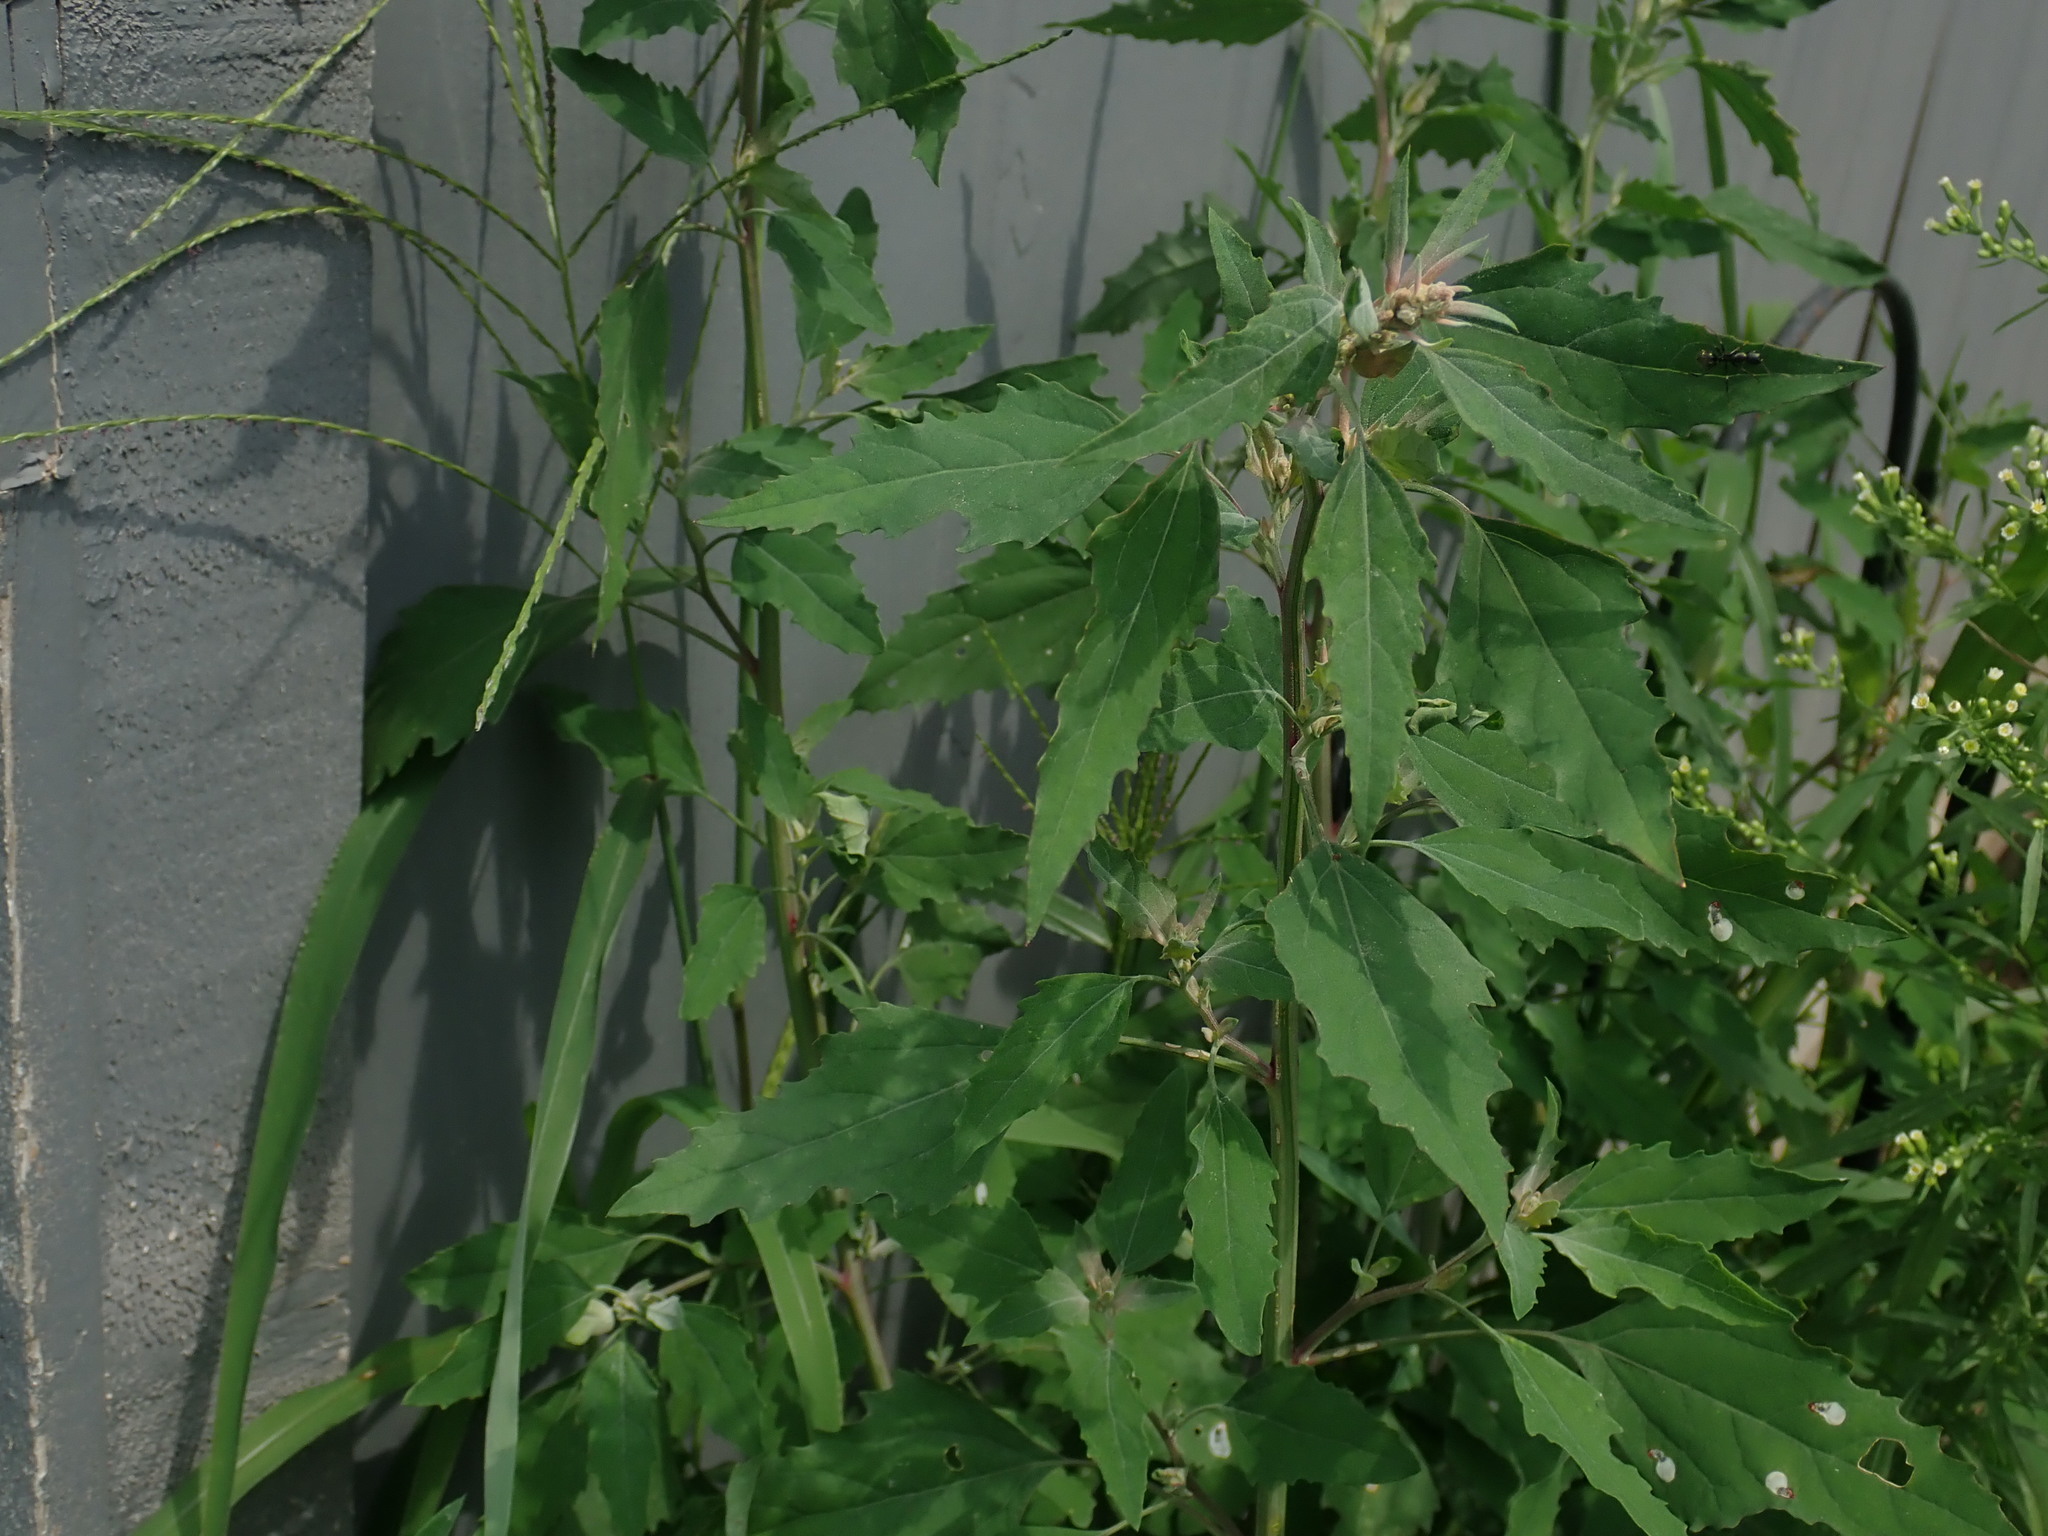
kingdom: Plantae
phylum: Tracheophyta
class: Magnoliopsida
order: Caryophyllales
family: Amaranthaceae
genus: Chenopodium
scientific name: Chenopodium album
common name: Fat-hen
